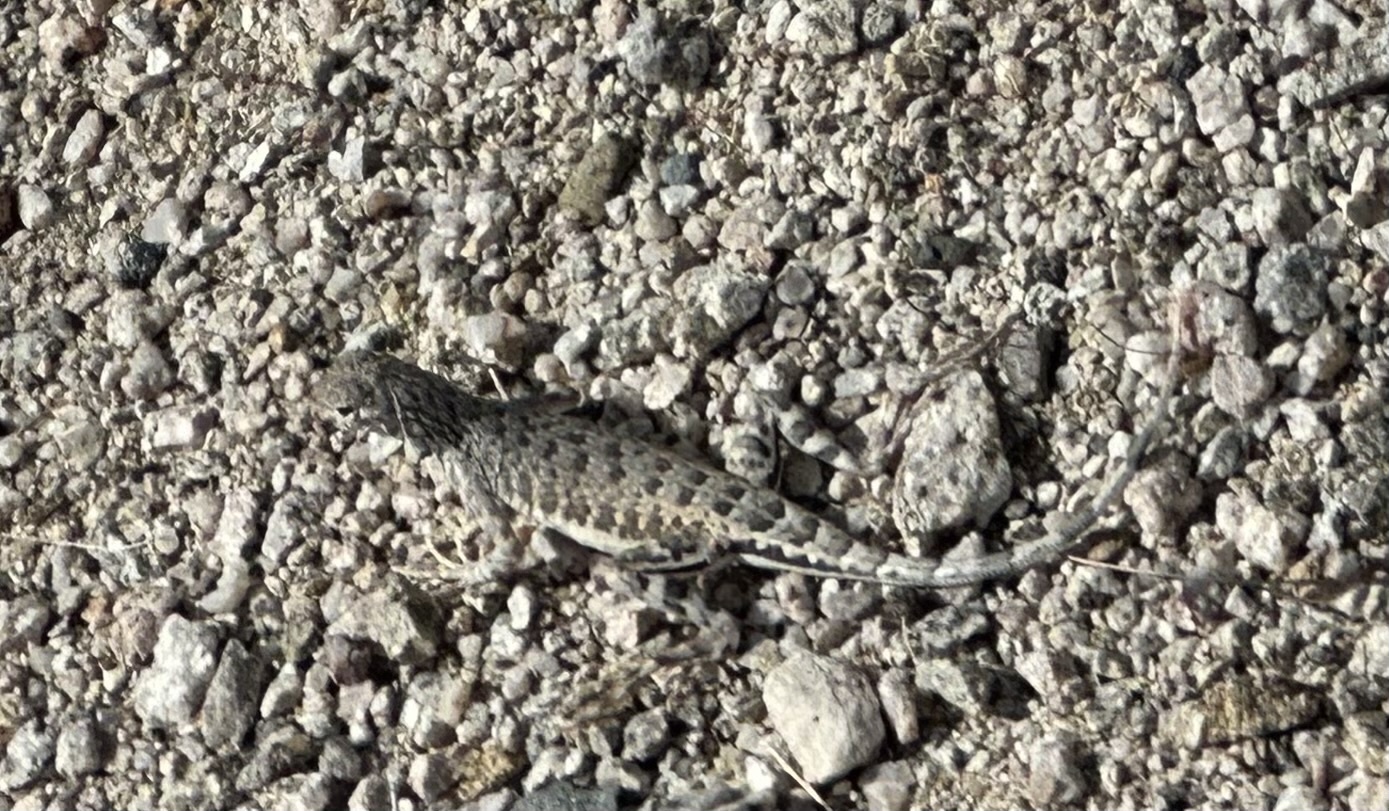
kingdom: Animalia
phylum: Chordata
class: Squamata
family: Phrynosomatidae
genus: Callisaurus
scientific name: Callisaurus draconoides
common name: Zebra-tailed lizard
